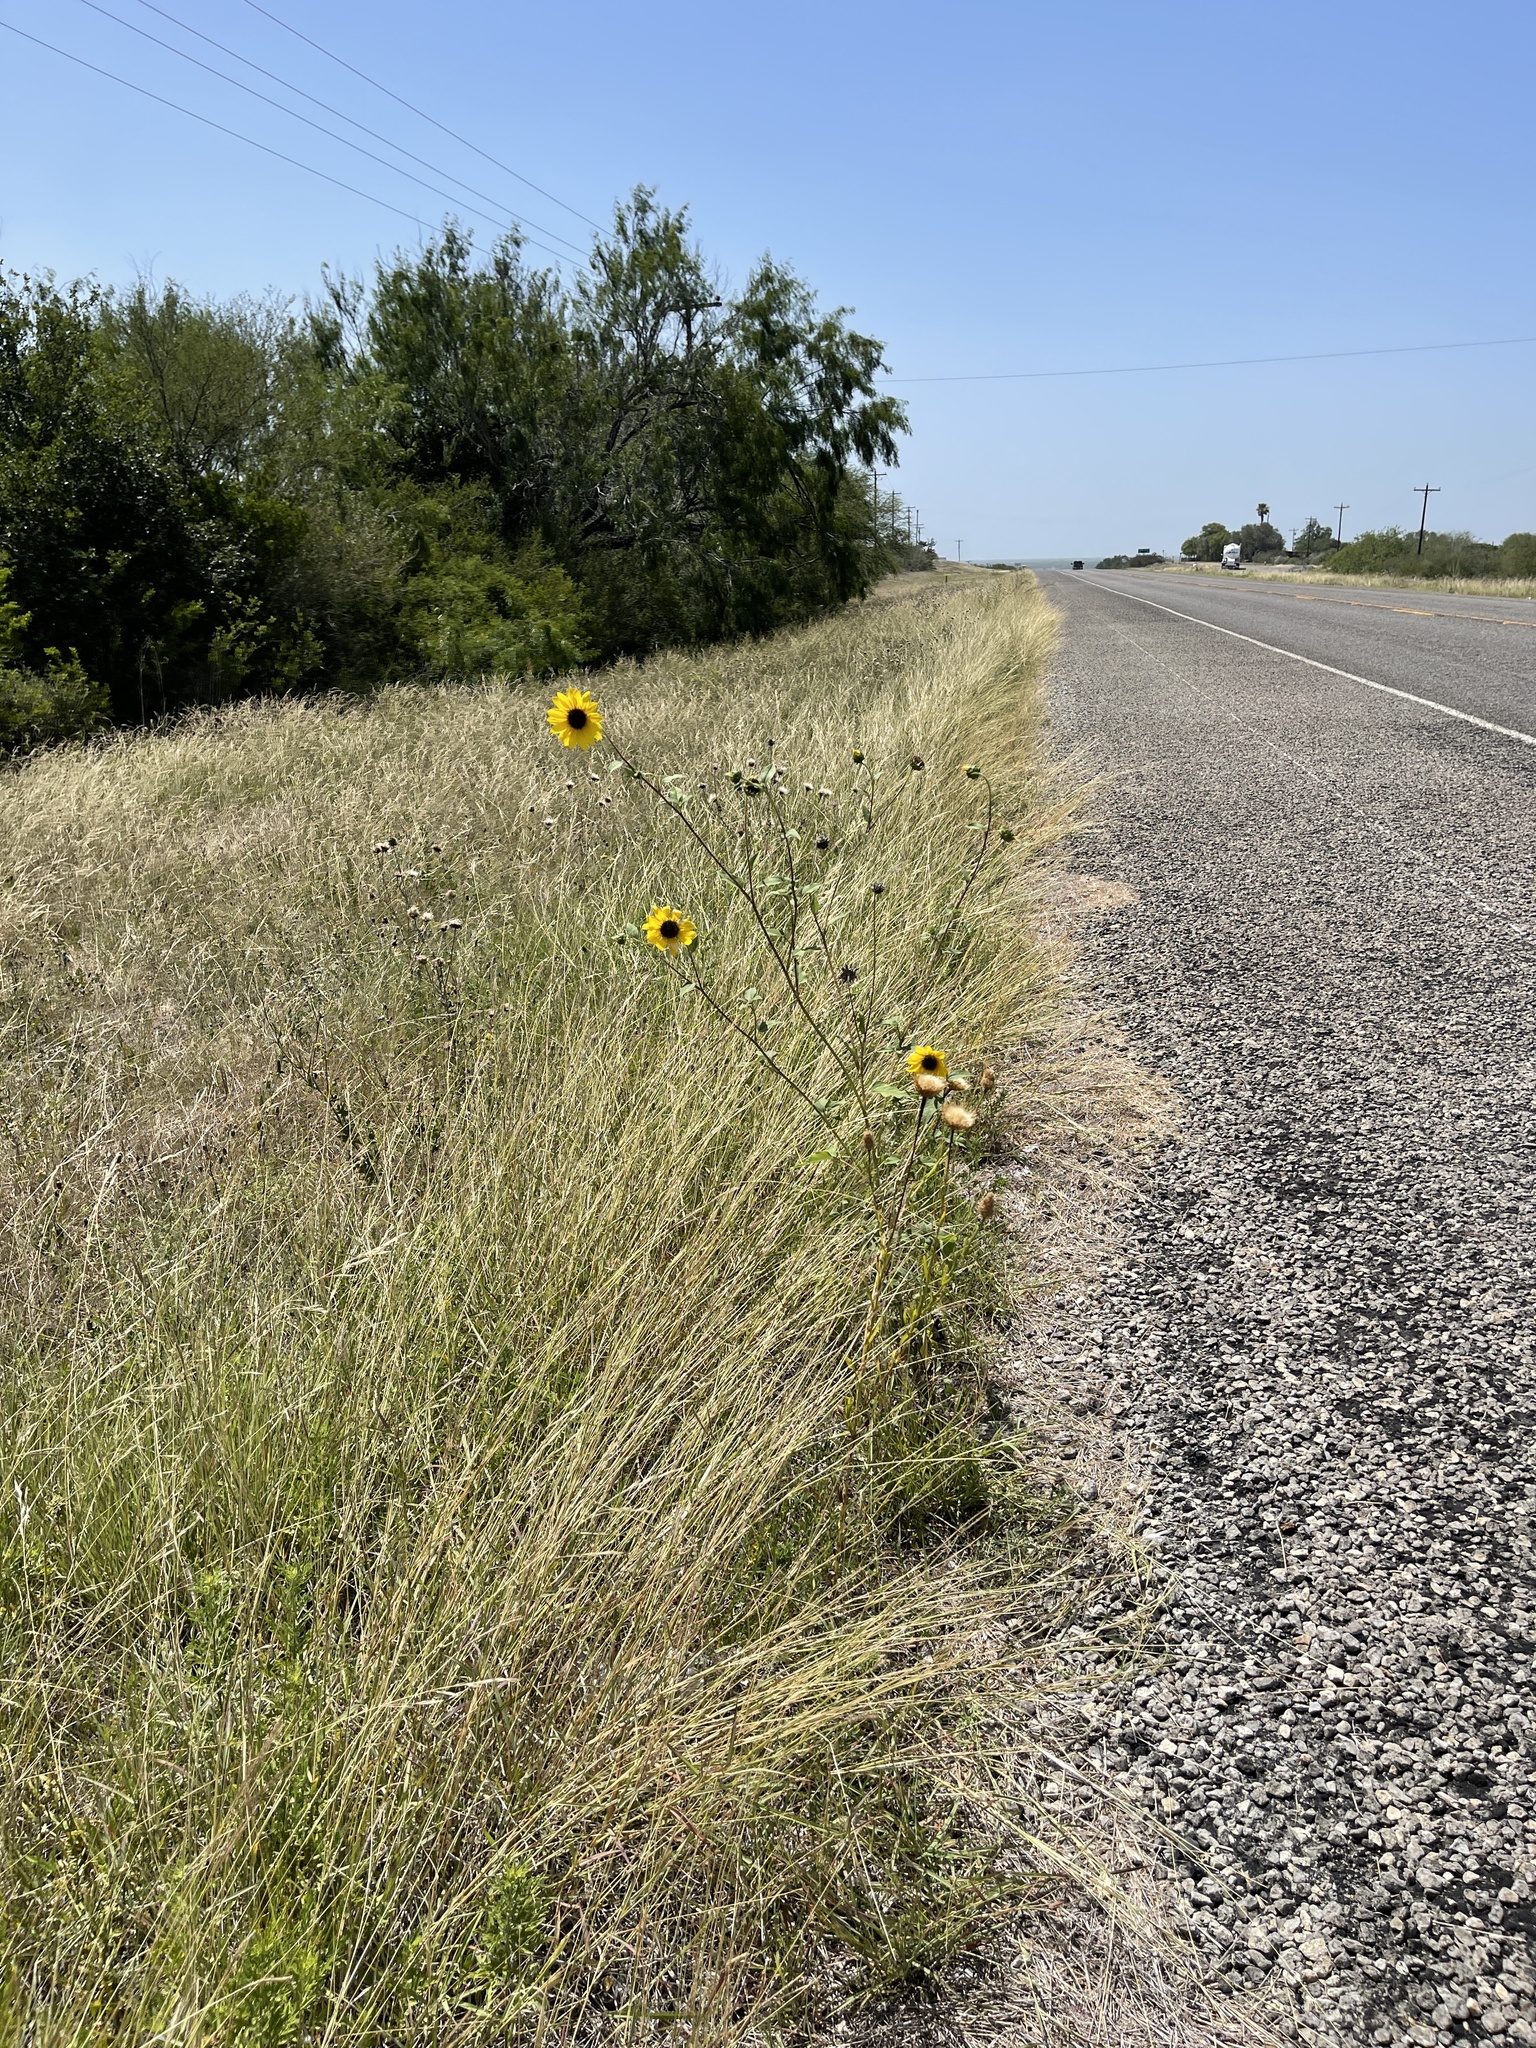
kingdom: Plantae
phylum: Tracheophyta
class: Magnoliopsida
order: Asterales
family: Asteraceae
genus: Helianthus
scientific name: Helianthus annuus
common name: Sunflower
